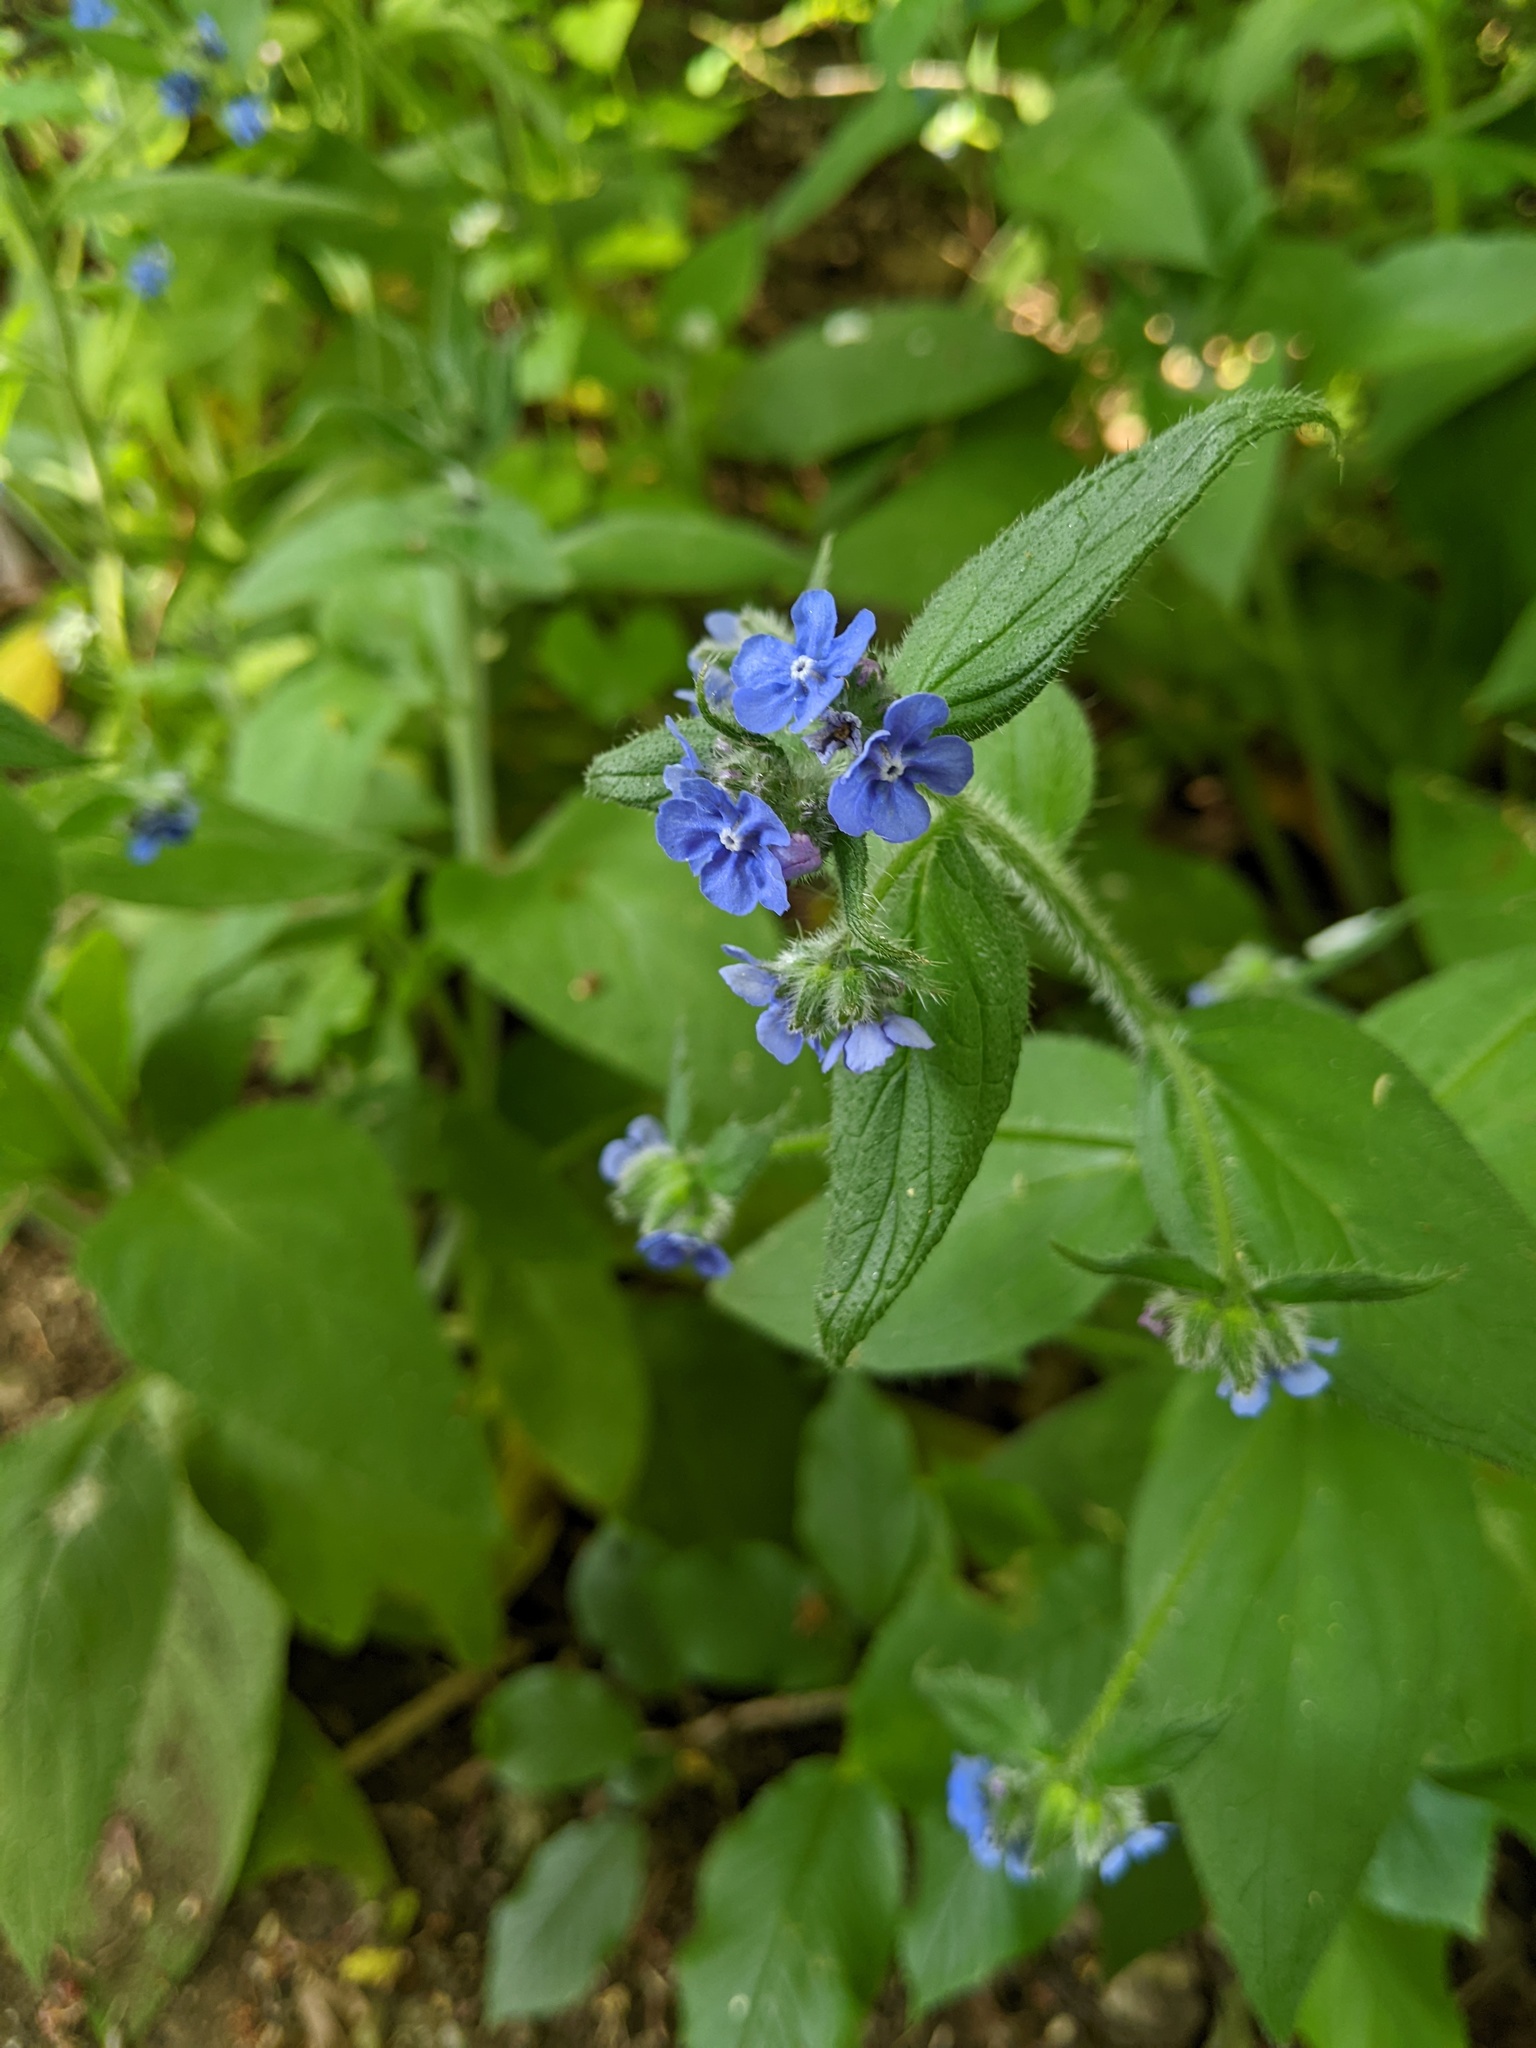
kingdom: Plantae
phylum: Tracheophyta
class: Magnoliopsida
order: Boraginales
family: Boraginaceae
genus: Pentaglottis
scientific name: Pentaglottis sempervirens
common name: Green alkanet
